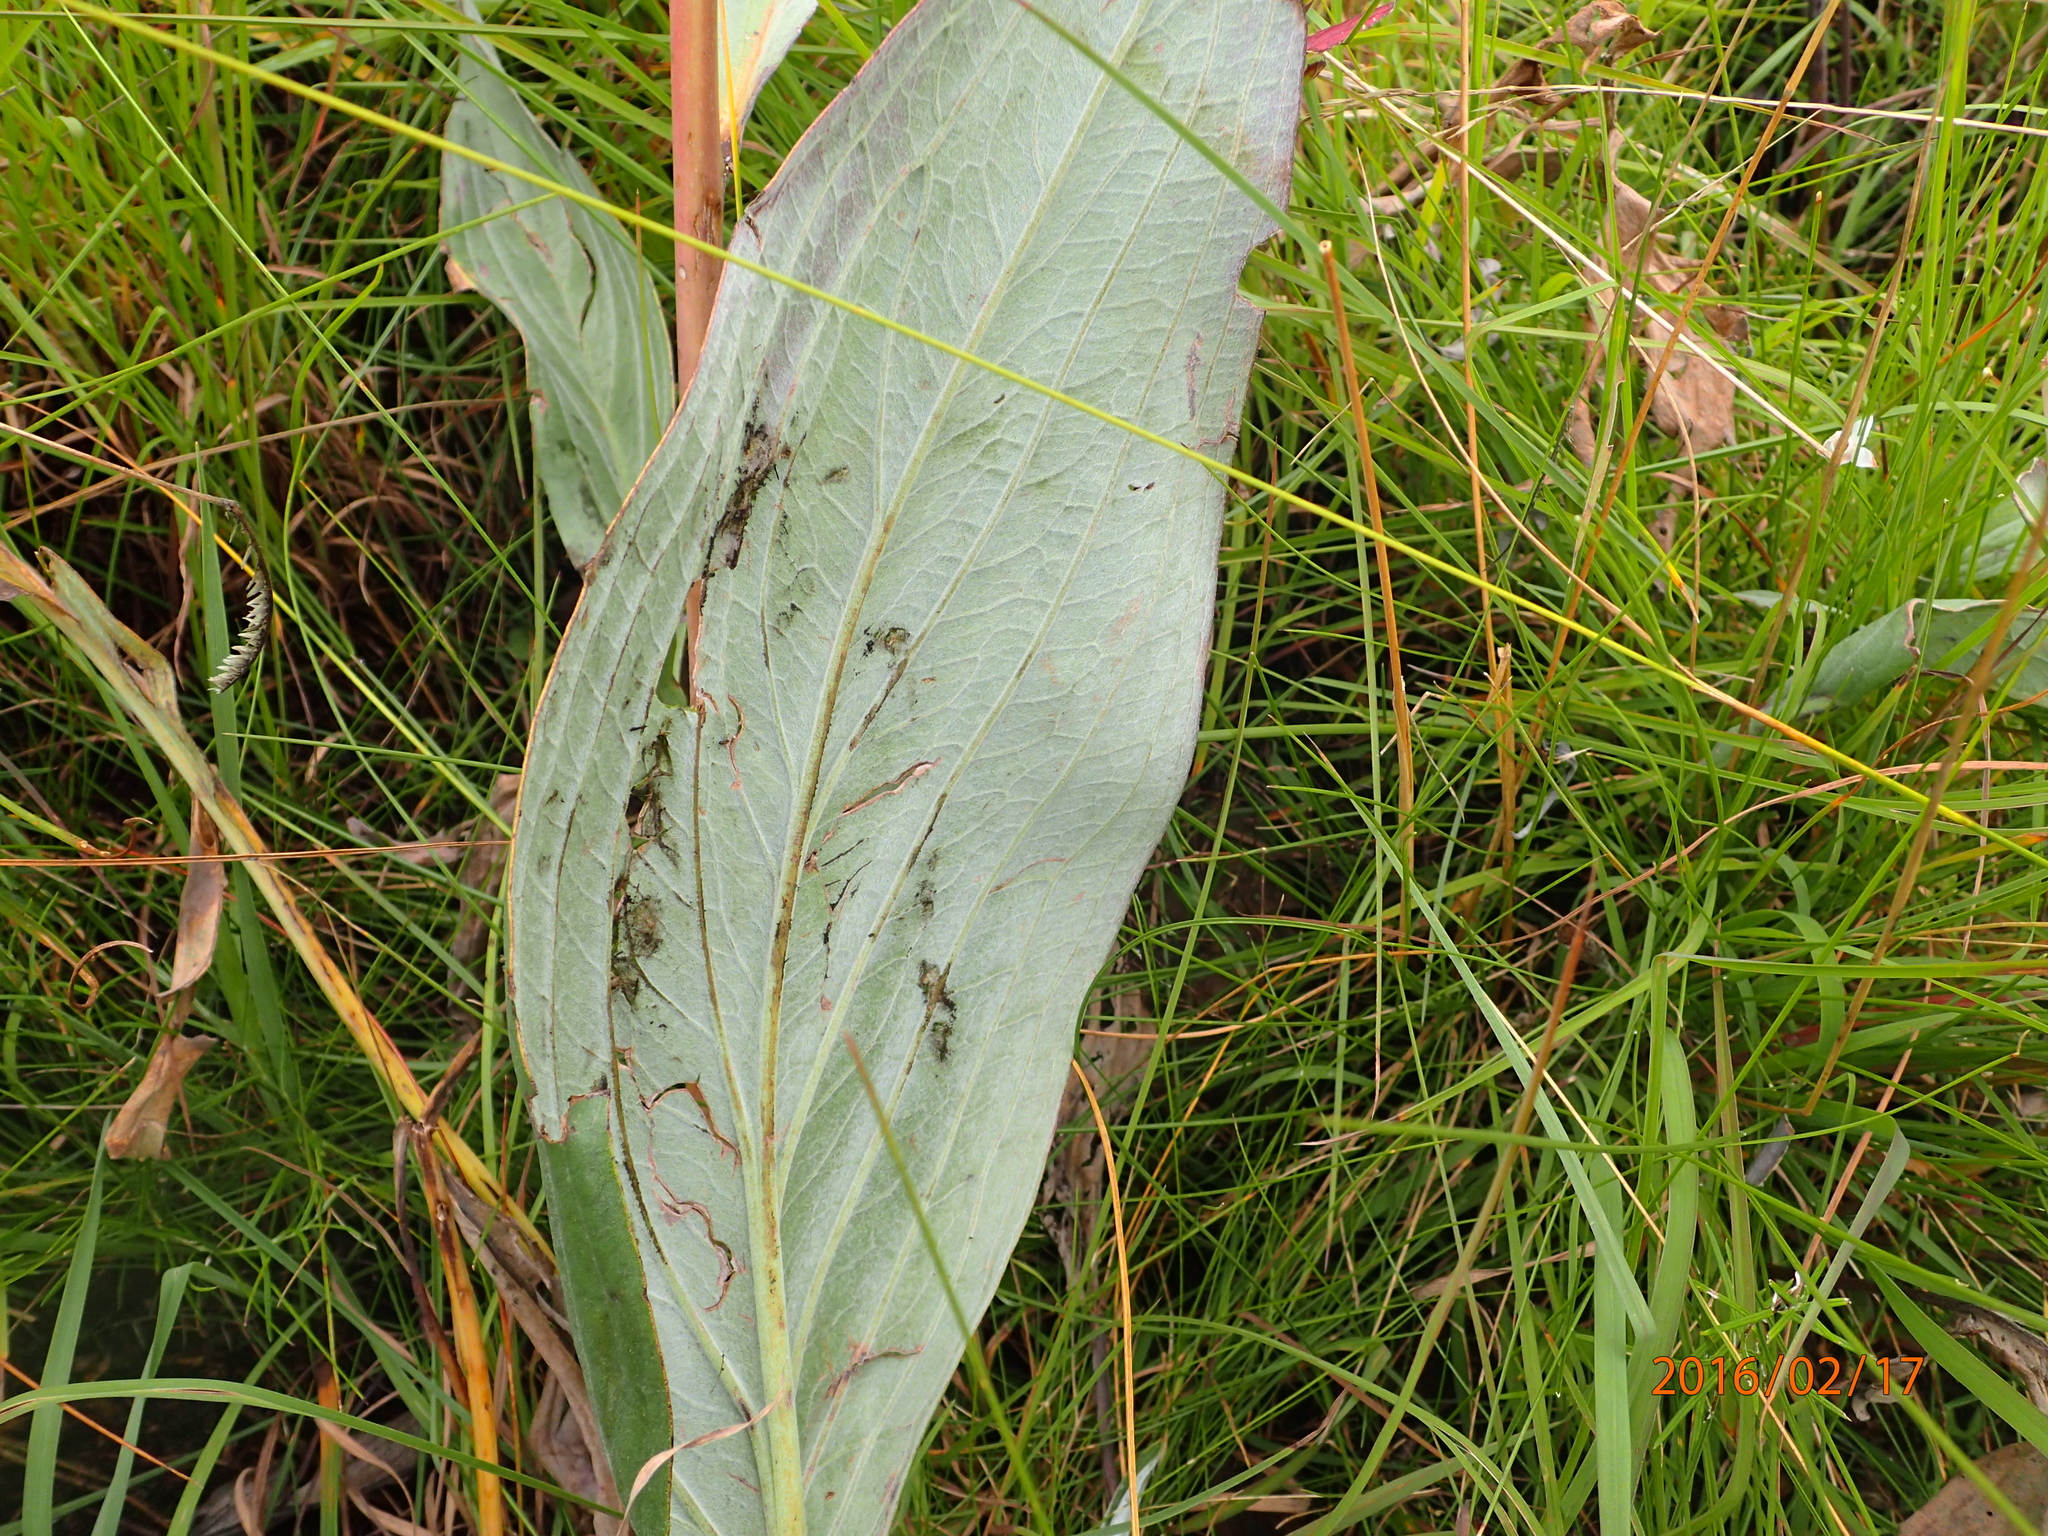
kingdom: Plantae
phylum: Tracheophyta
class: Magnoliopsida
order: Boraginales
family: Boraginaceae
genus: Afrotysonia
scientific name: Afrotysonia glochidiata
